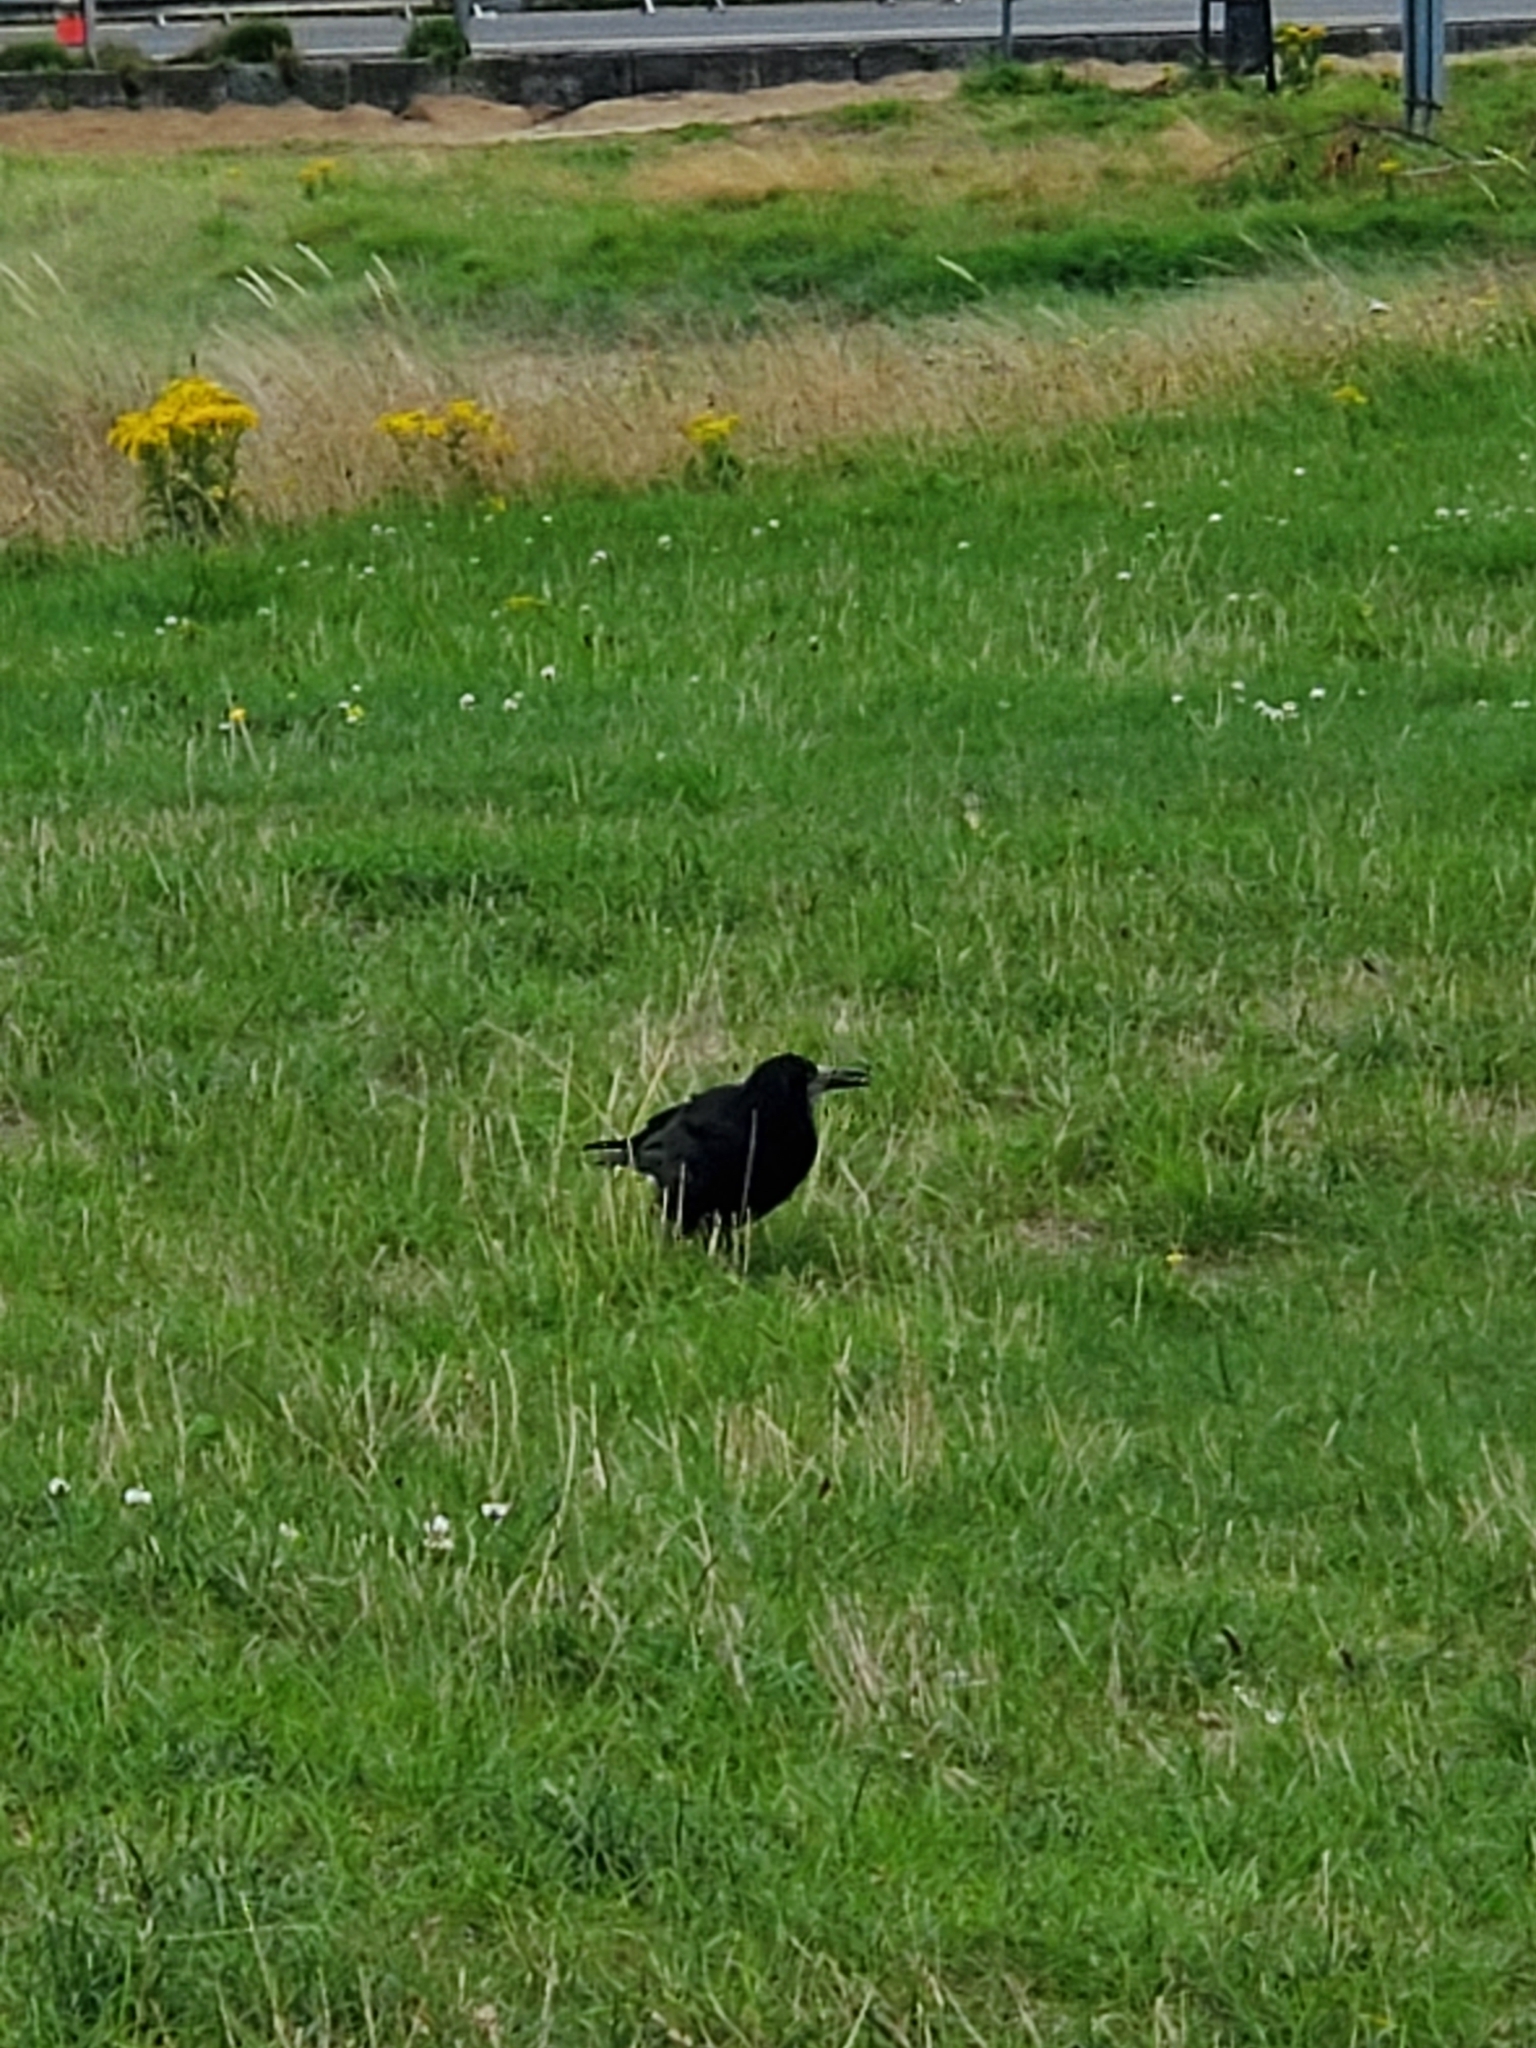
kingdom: Animalia
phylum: Chordata
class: Aves
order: Passeriformes
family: Corvidae
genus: Corvus
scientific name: Corvus frugilegus
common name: Rook
